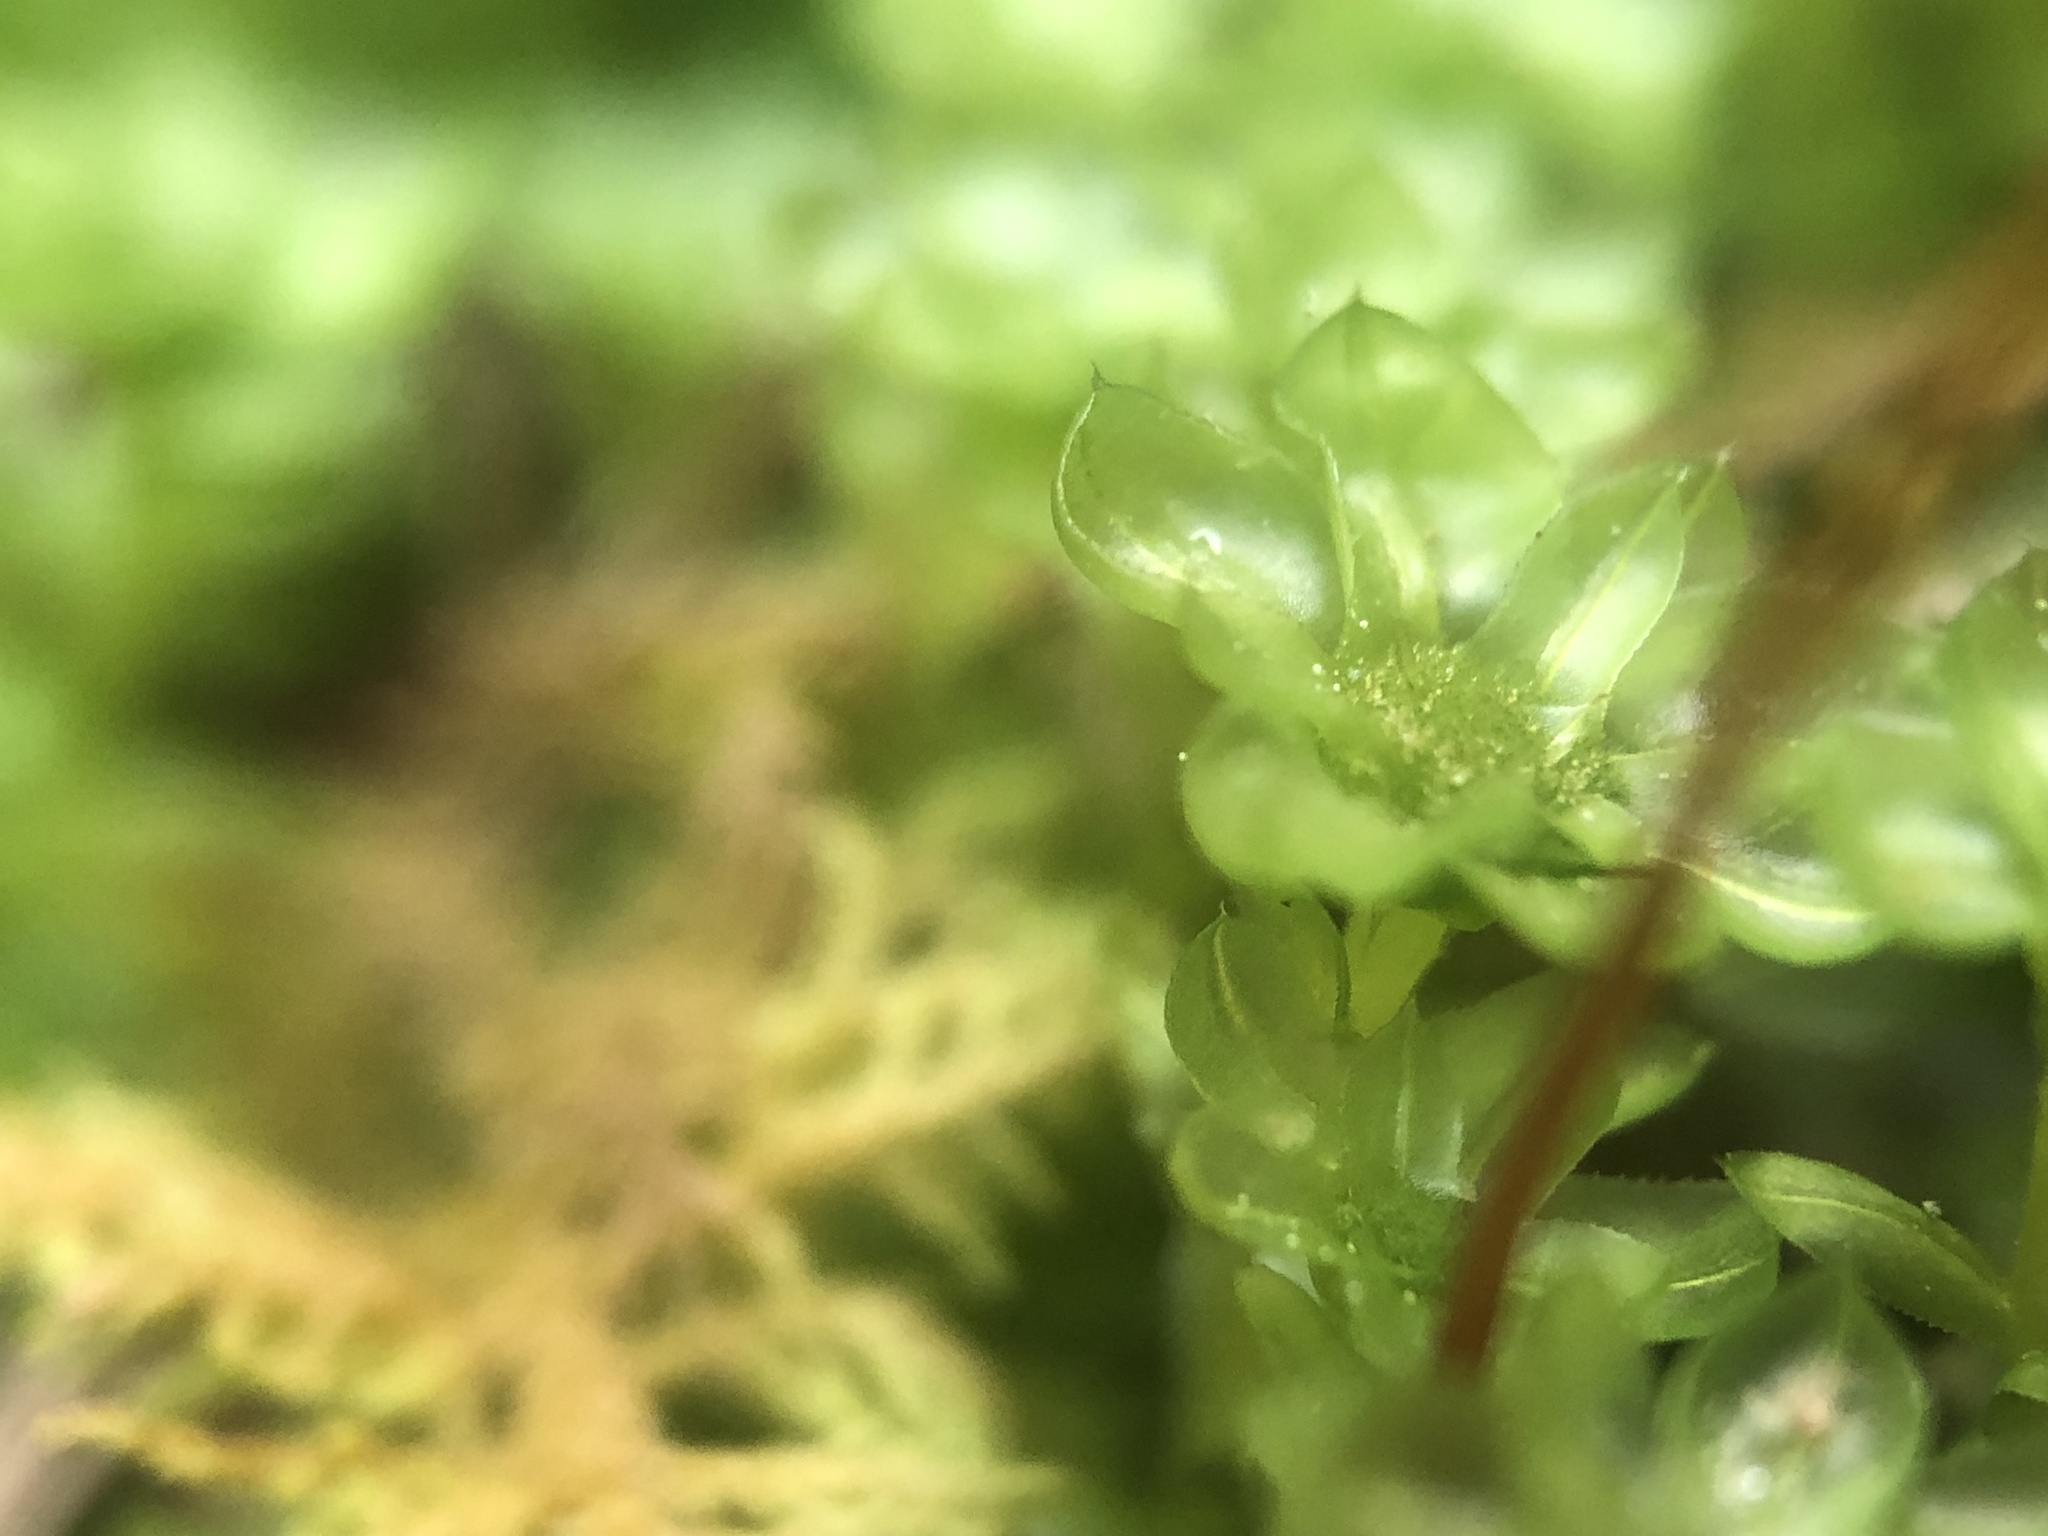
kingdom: Plantae
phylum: Bryophyta
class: Bryopsida
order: Bryales
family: Mniaceae
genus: Plagiomnium
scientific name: Plagiomnium ciliare
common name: Toothed leafy moss
